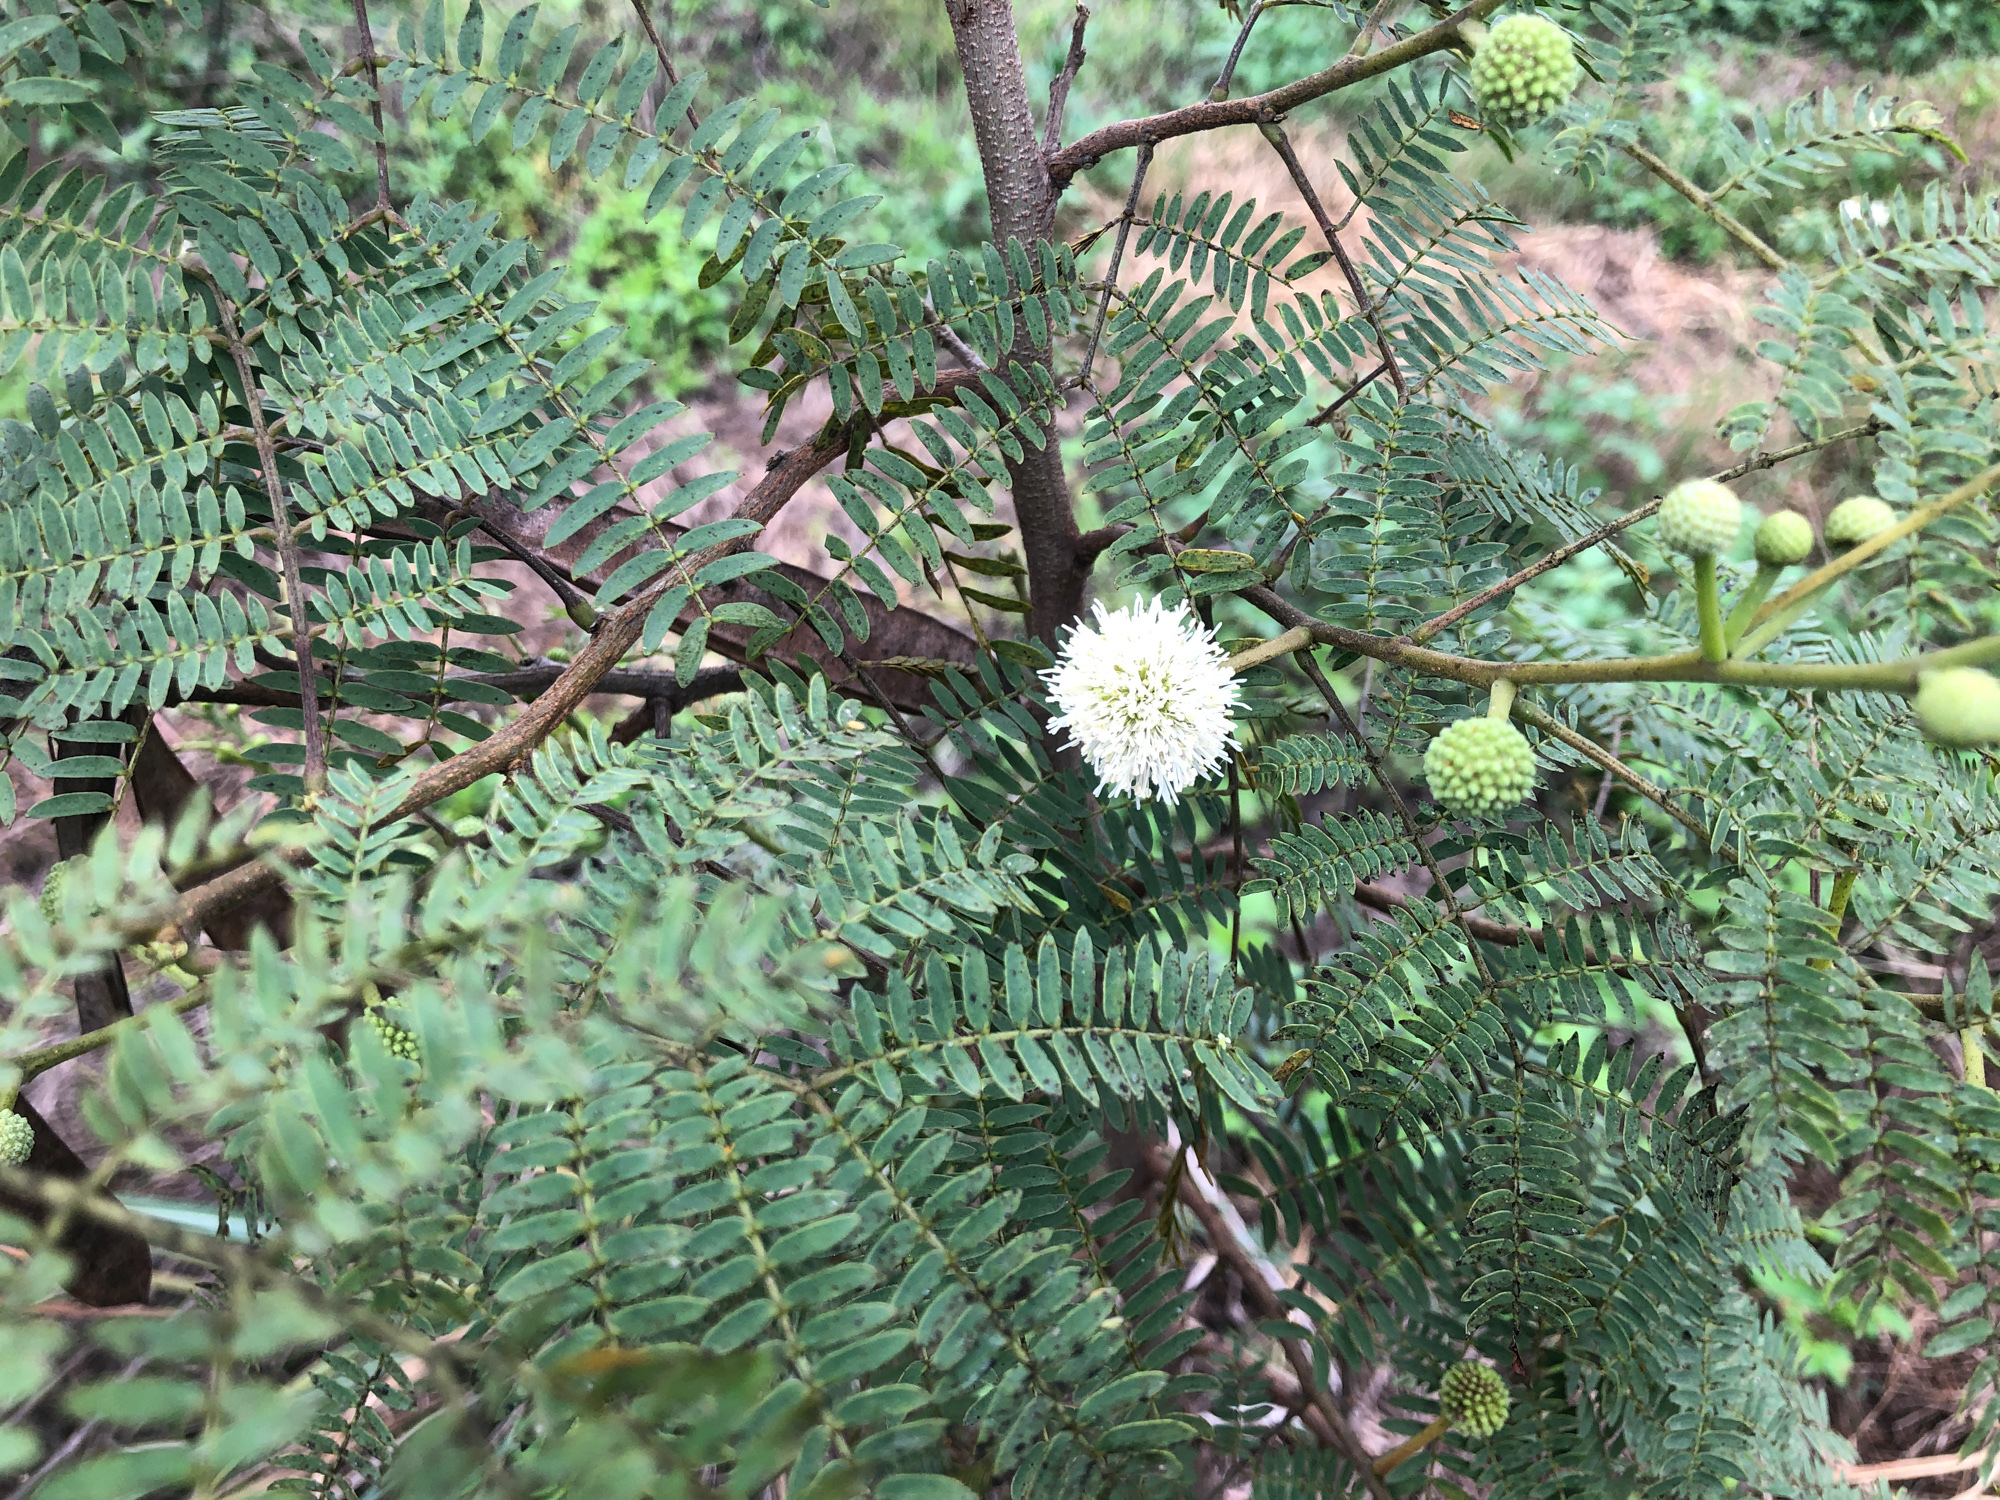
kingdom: Plantae
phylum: Tracheophyta
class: Magnoliopsida
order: Fabales
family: Fabaceae
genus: Leucaena
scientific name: Leucaena leucocephala
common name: White leadtree
